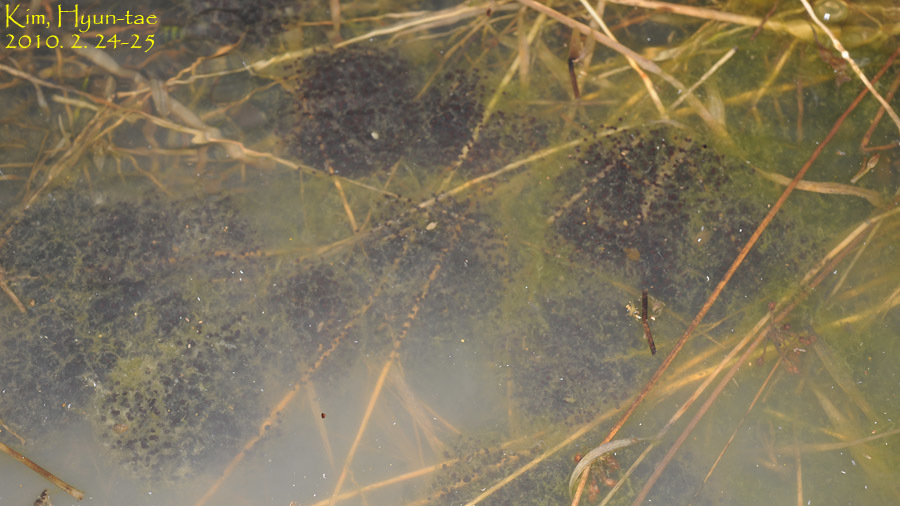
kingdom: Animalia
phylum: Chordata
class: Amphibia
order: Anura
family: Ranidae
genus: Rana
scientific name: Rana coreana
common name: Korean brown frog
